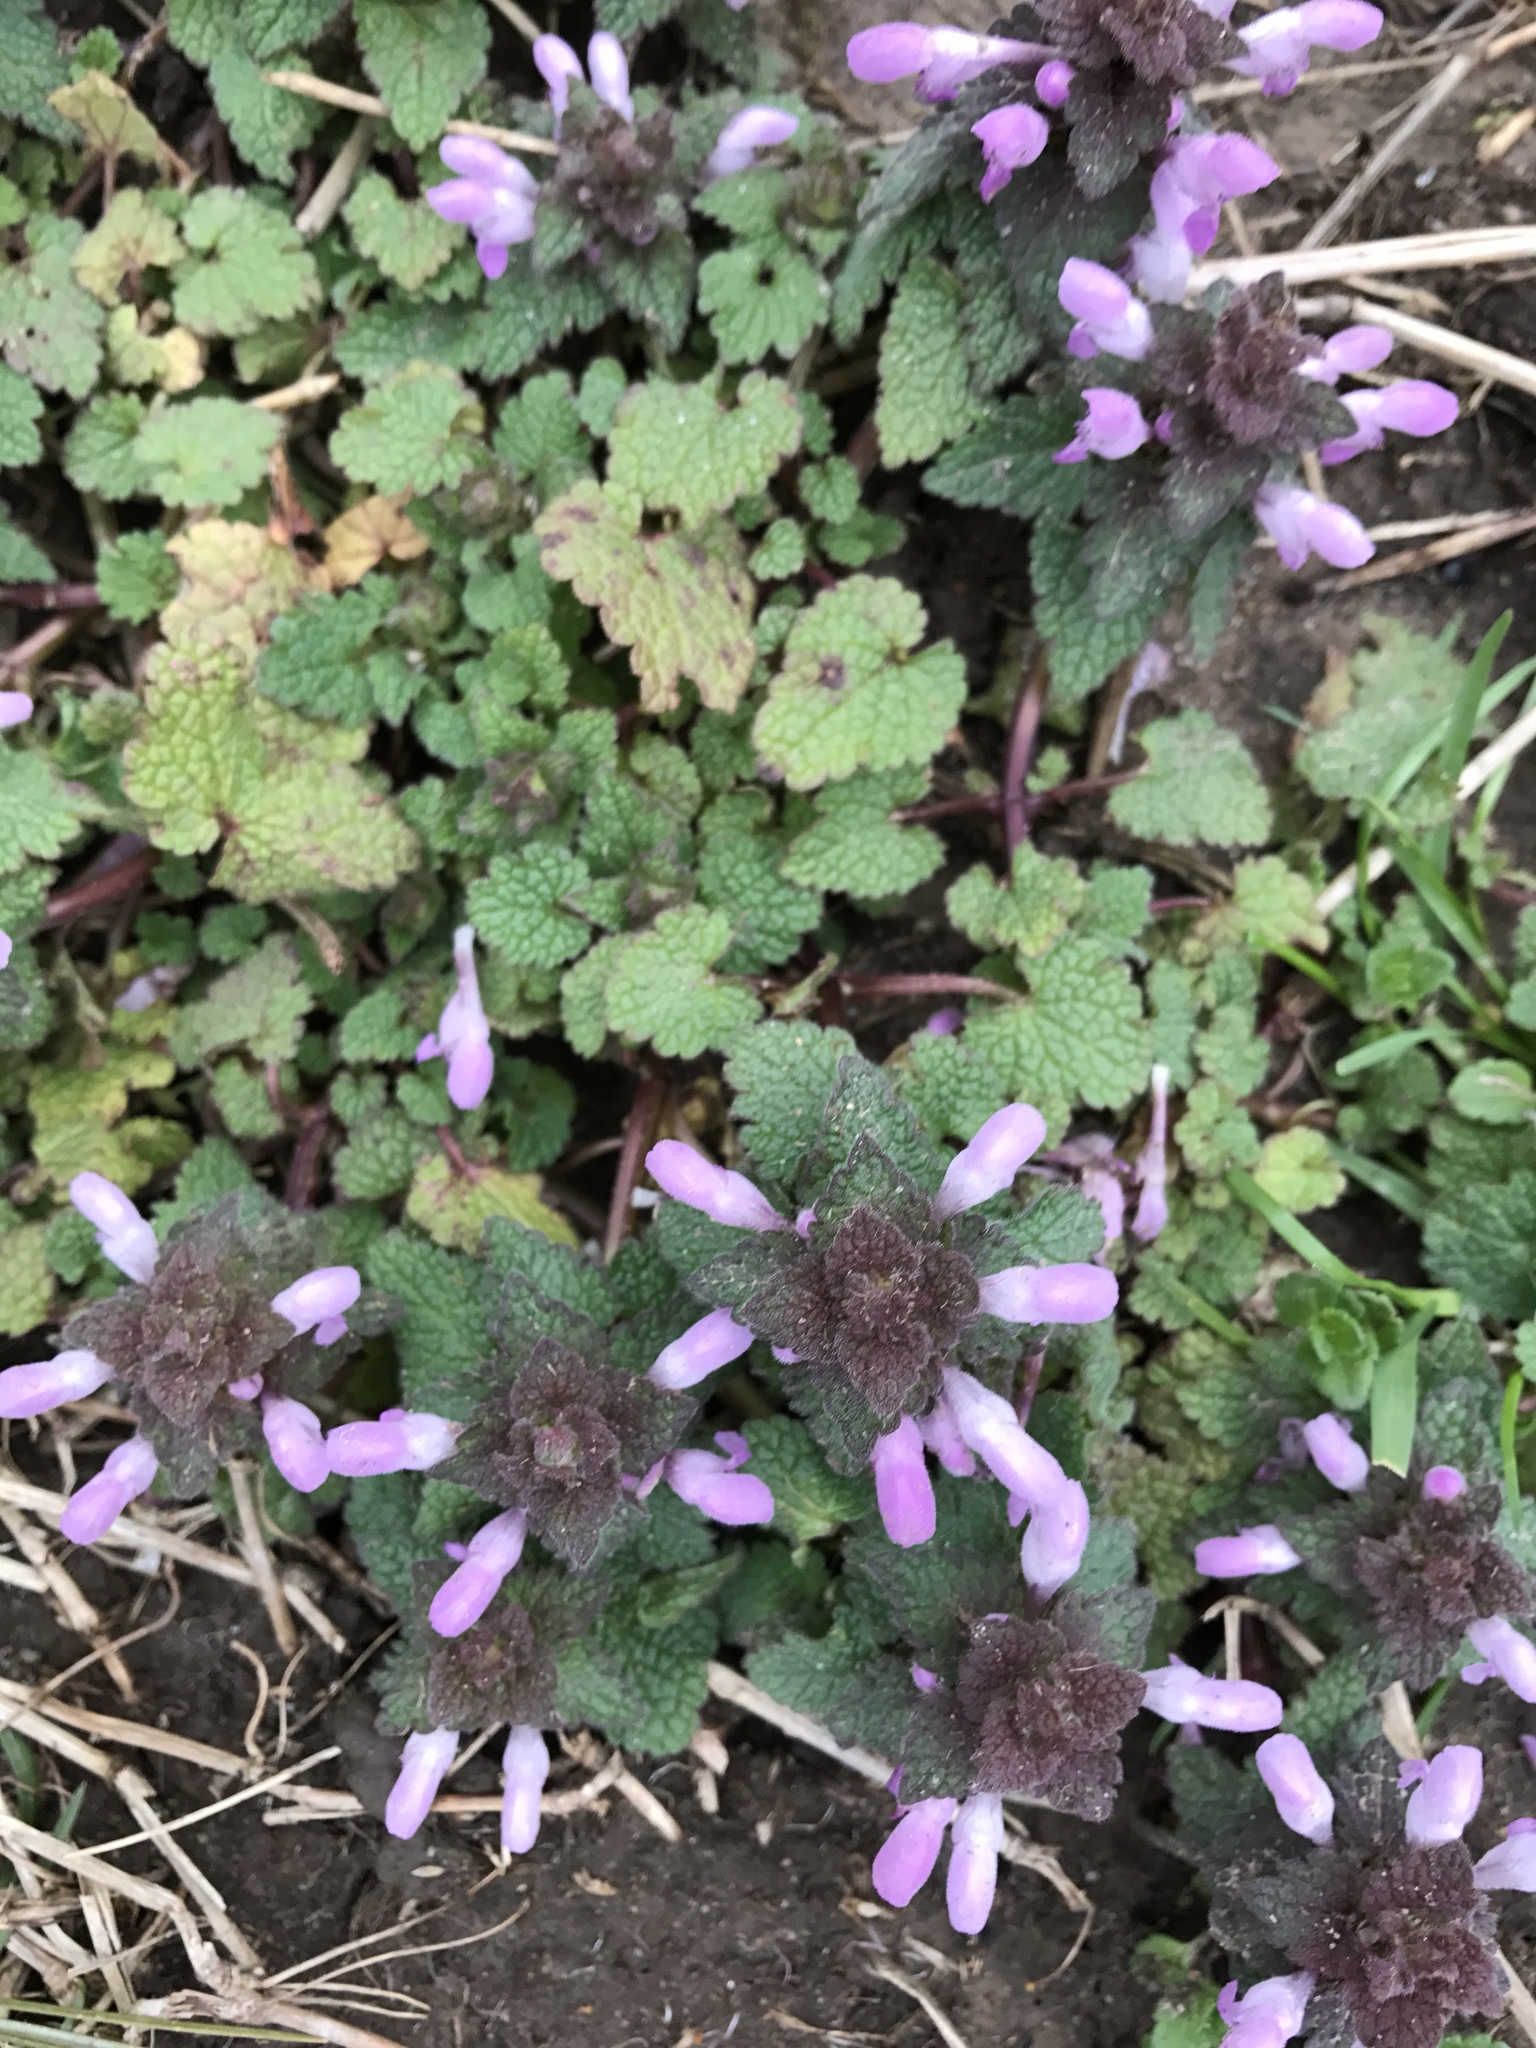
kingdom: Plantae
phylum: Tracheophyta
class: Magnoliopsida
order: Lamiales
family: Lamiaceae
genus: Lamium
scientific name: Lamium purpureum
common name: Red dead-nettle
